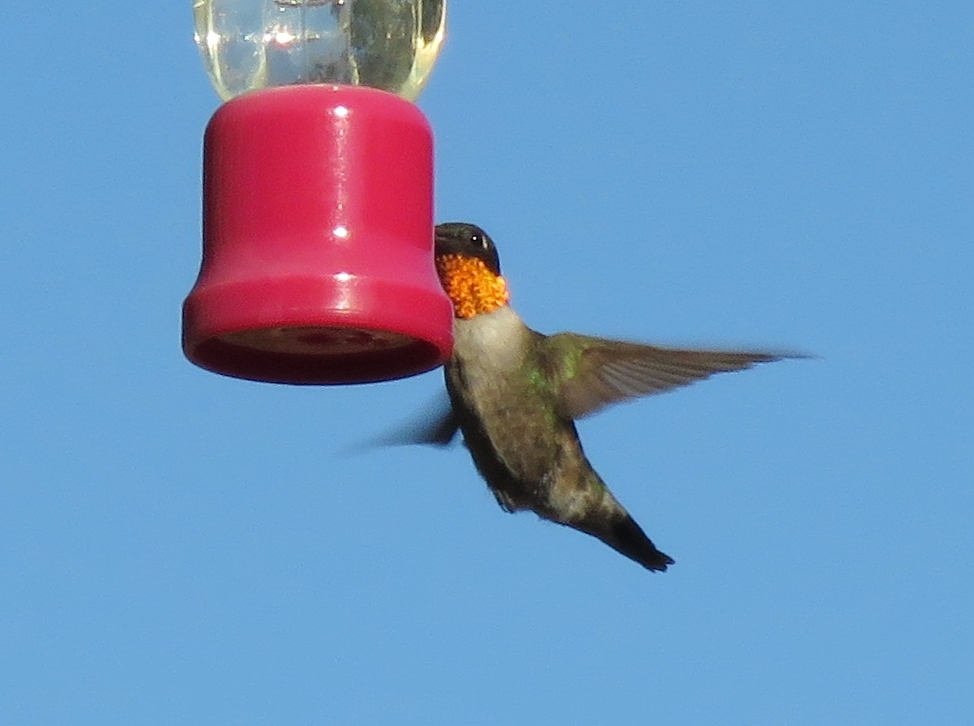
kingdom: Animalia
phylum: Chordata
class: Aves
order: Apodiformes
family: Trochilidae
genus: Archilochus
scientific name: Archilochus colubris
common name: Ruby-throated hummingbird
